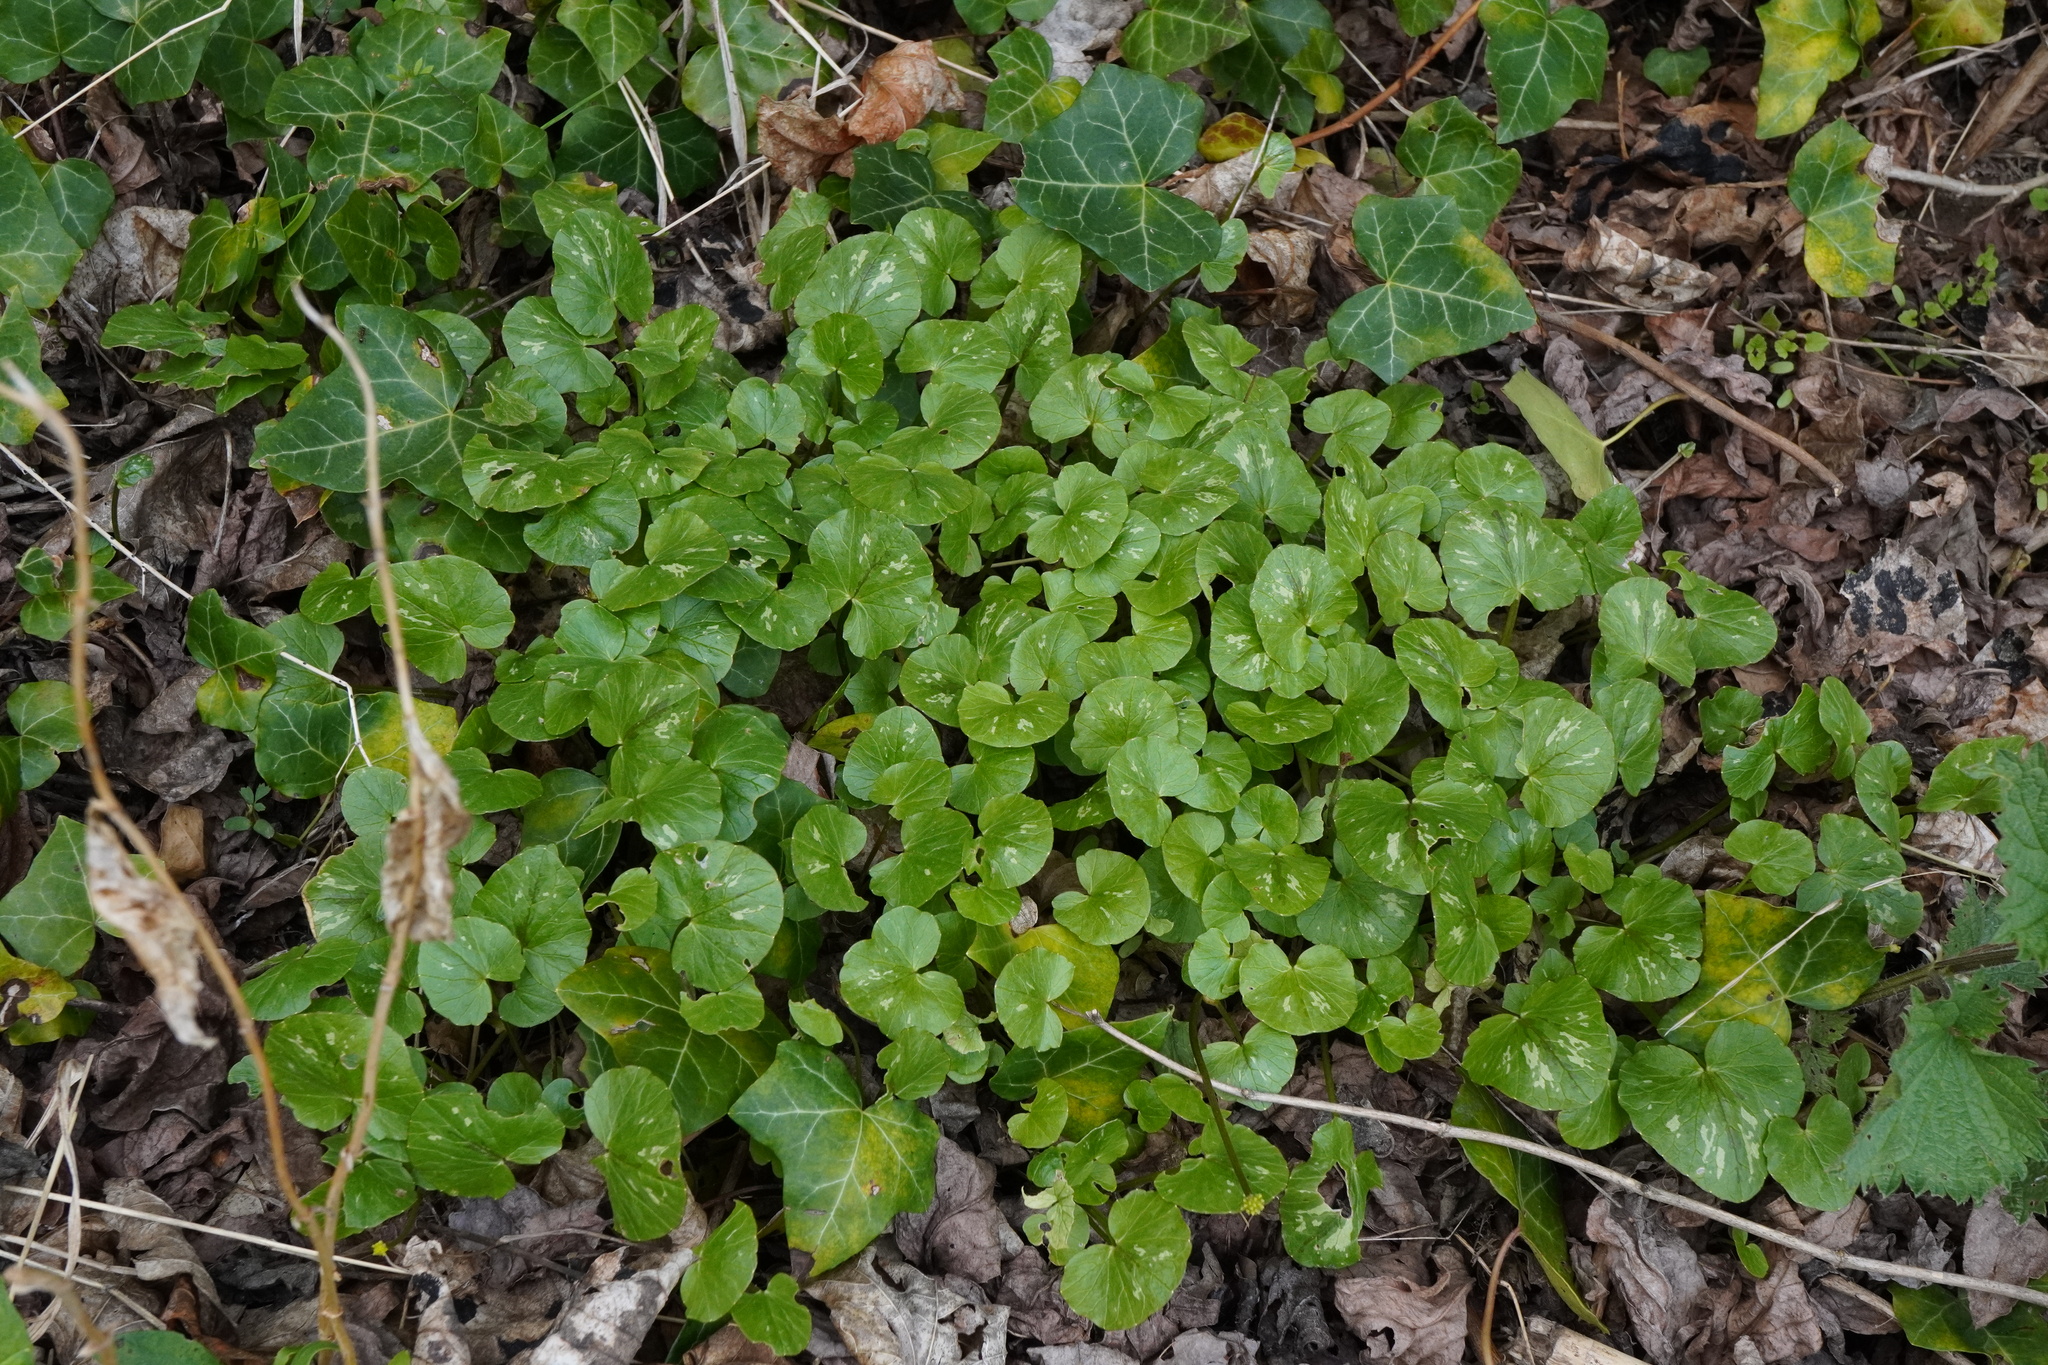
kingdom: Plantae
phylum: Tracheophyta
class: Magnoliopsida
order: Ranunculales
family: Ranunculaceae
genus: Ficaria
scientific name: Ficaria verna
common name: Lesser celandine
